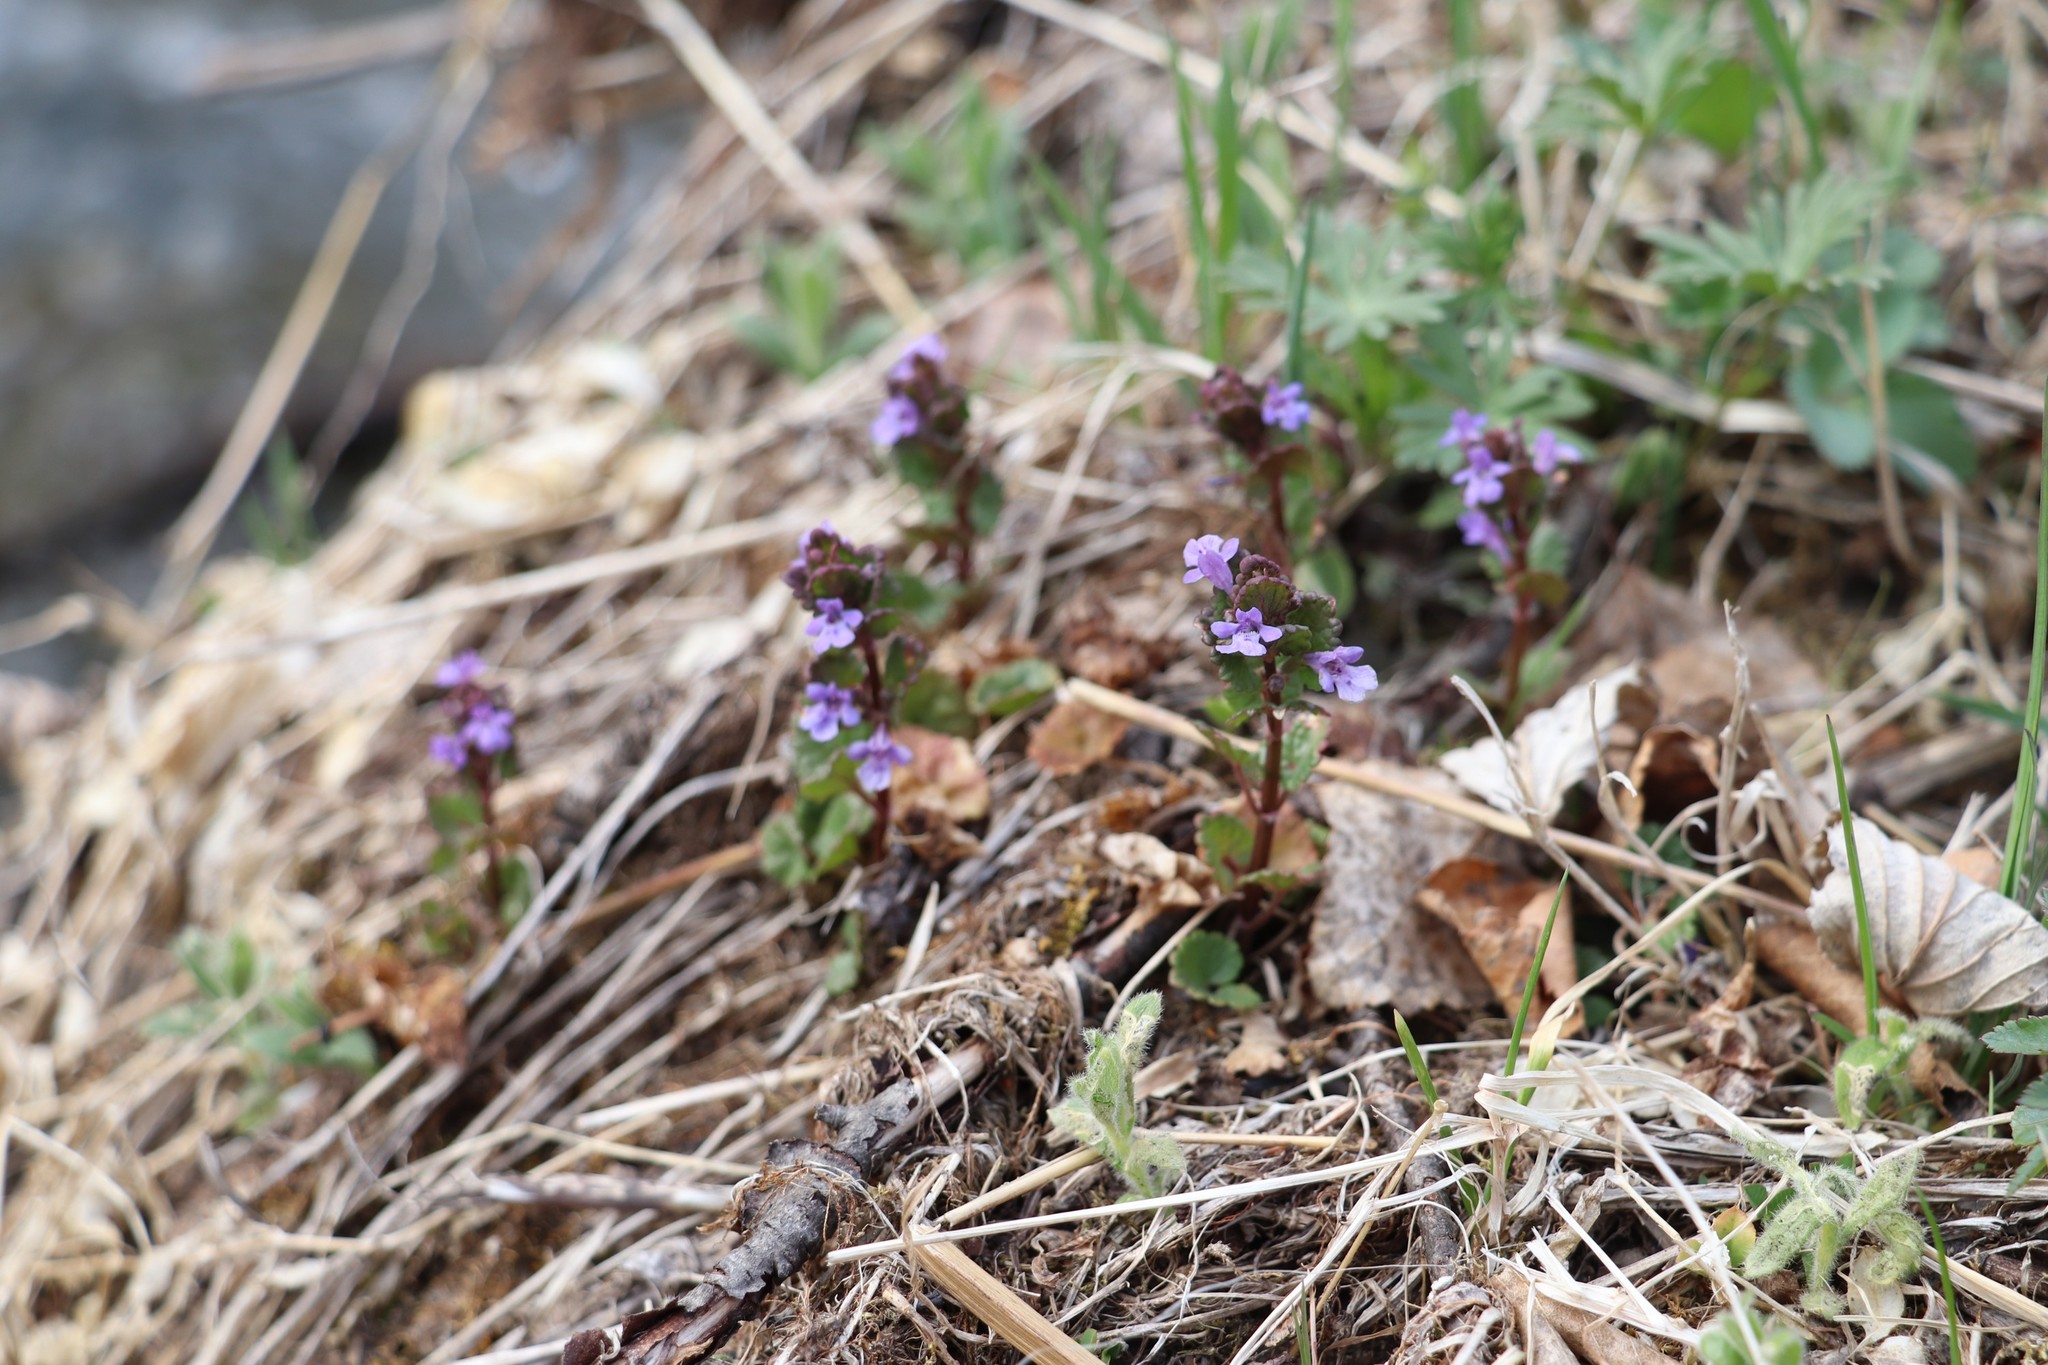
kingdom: Plantae
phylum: Tracheophyta
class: Magnoliopsida
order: Lamiales
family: Lamiaceae
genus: Glechoma
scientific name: Glechoma hederacea
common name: Ground ivy
